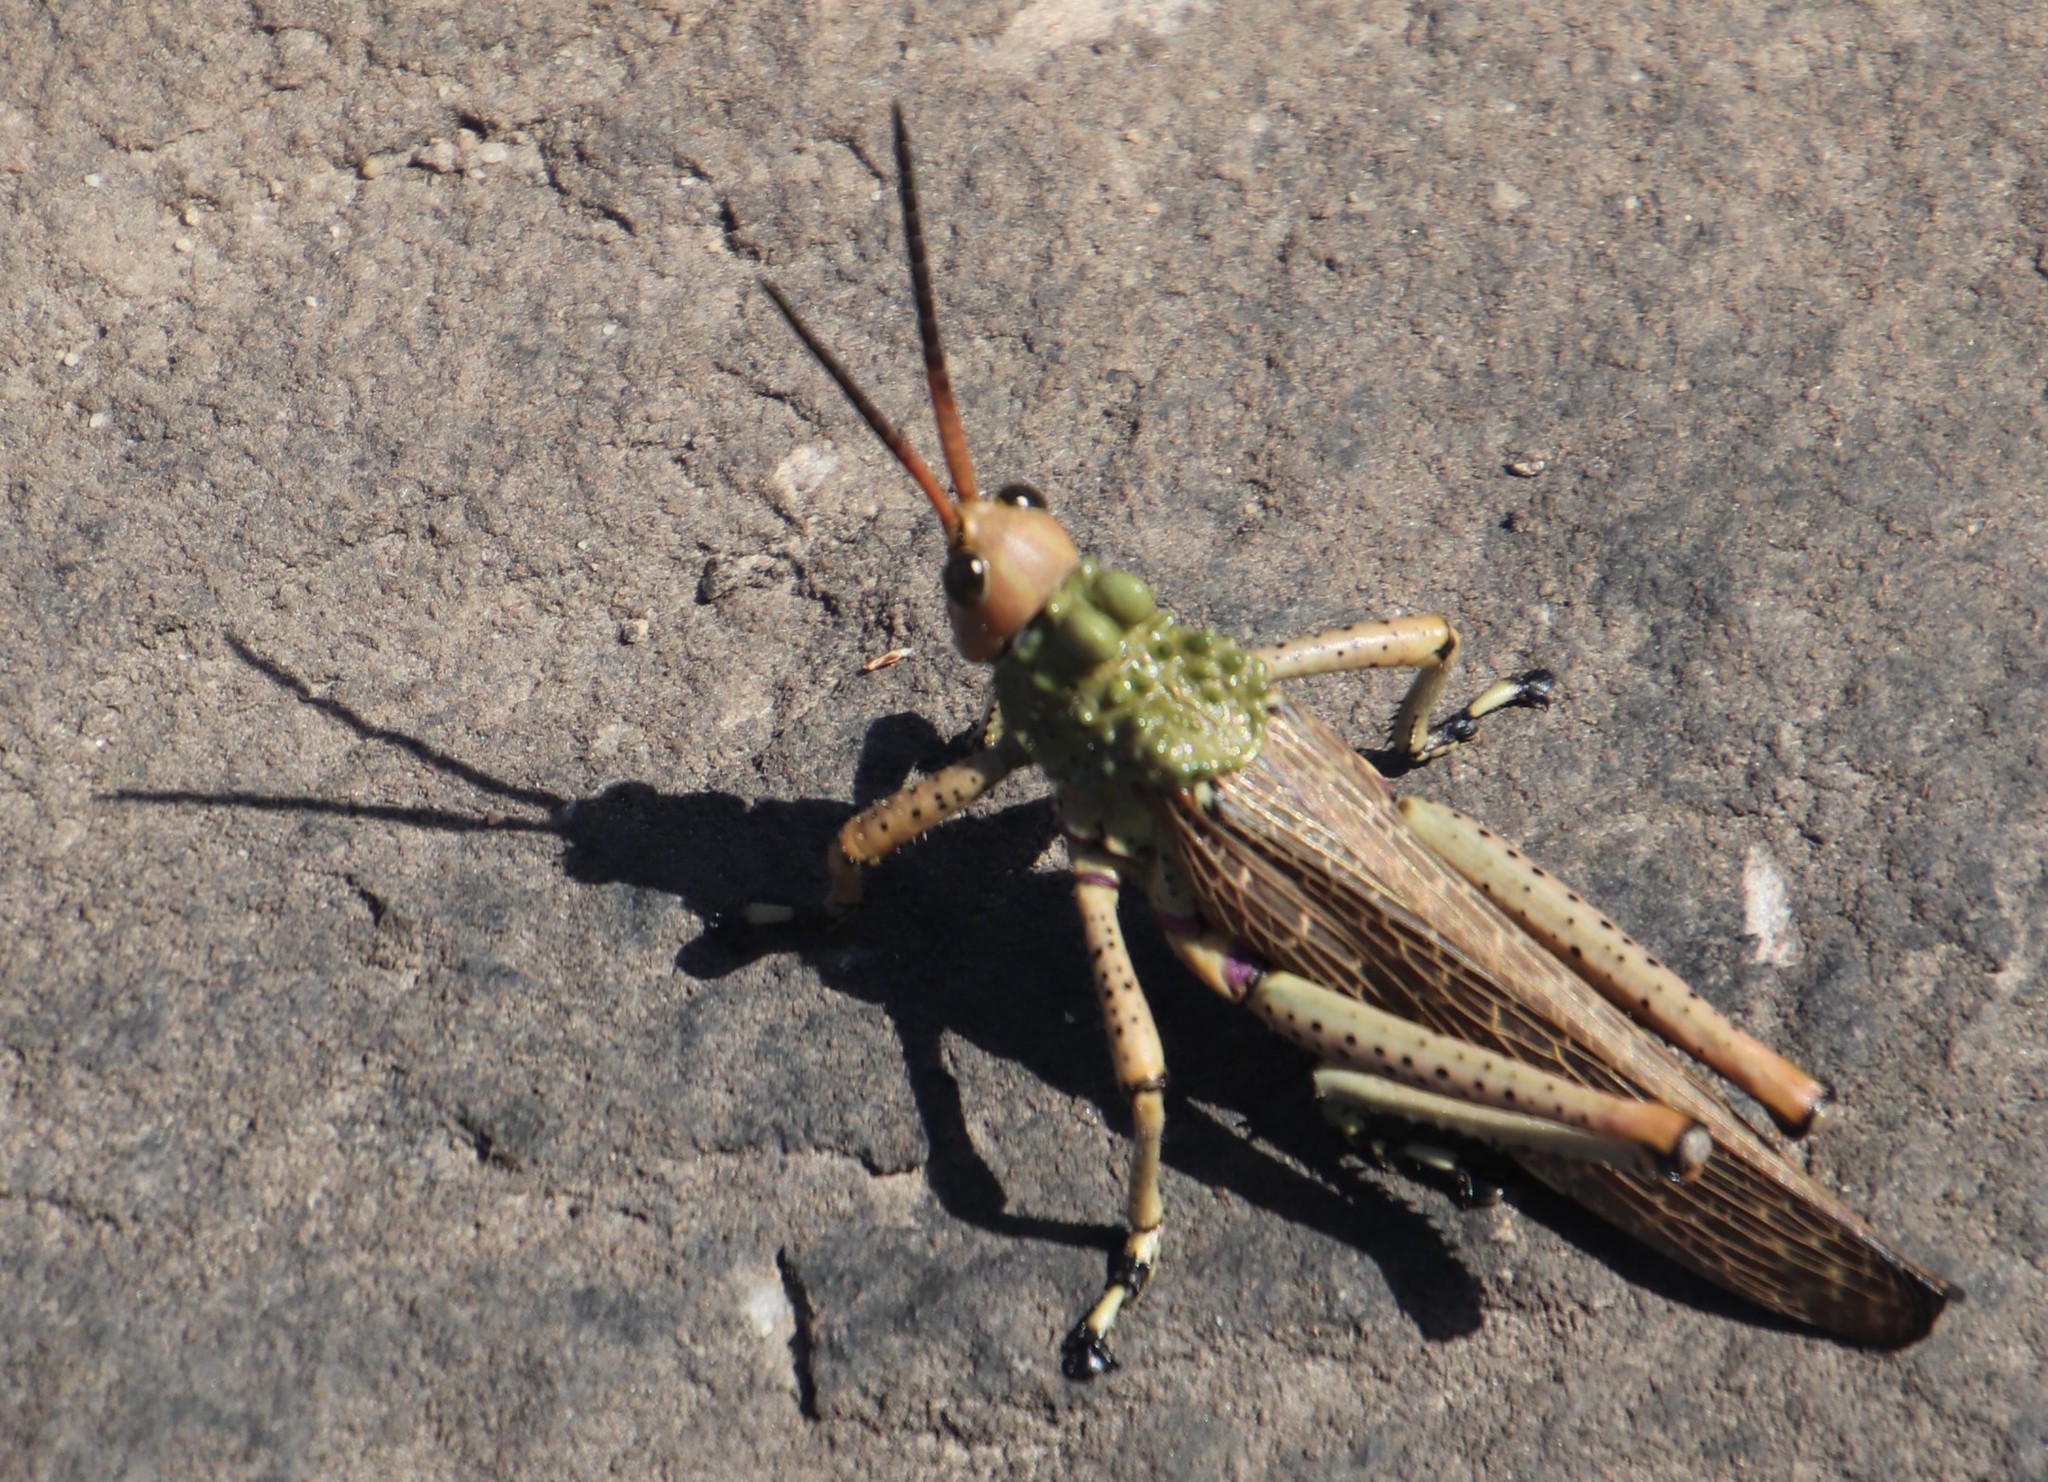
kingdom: Animalia
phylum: Arthropoda
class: Insecta
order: Orthoptera
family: Pyrgomorphidae
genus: Phymateus
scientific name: Phymateus leprosus
